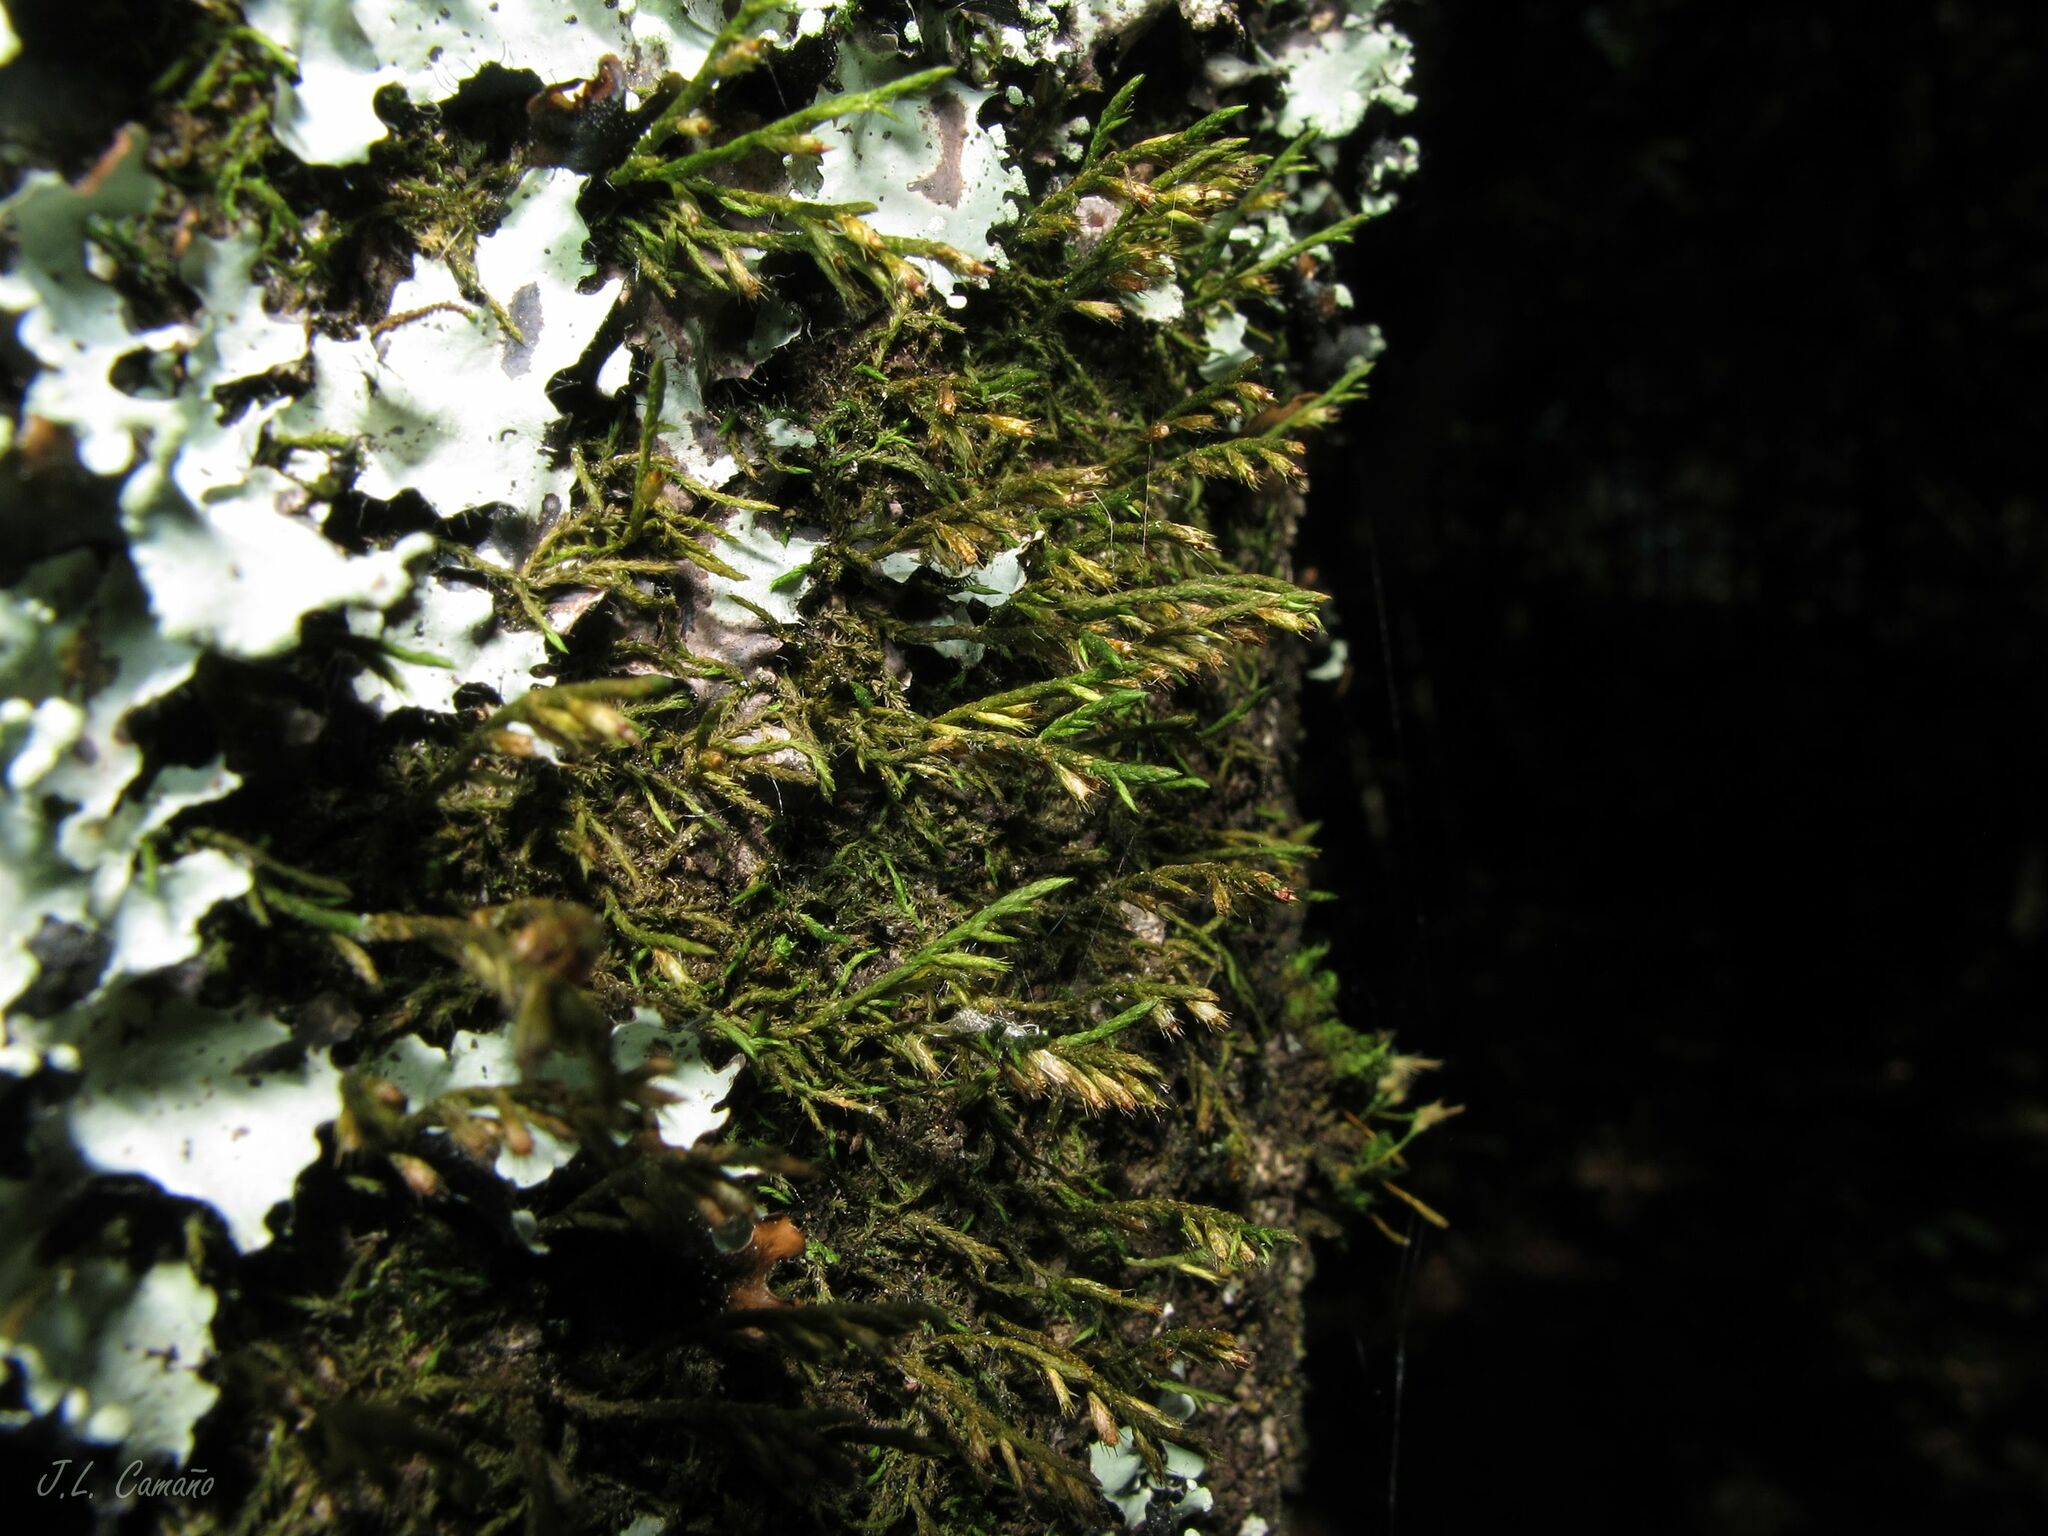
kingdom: Plantae
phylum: Bryophyta
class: Bryopsida
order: Hypnales
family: Cryphaeaceae
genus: Cryphaea
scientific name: Cryphaea heteromalla
